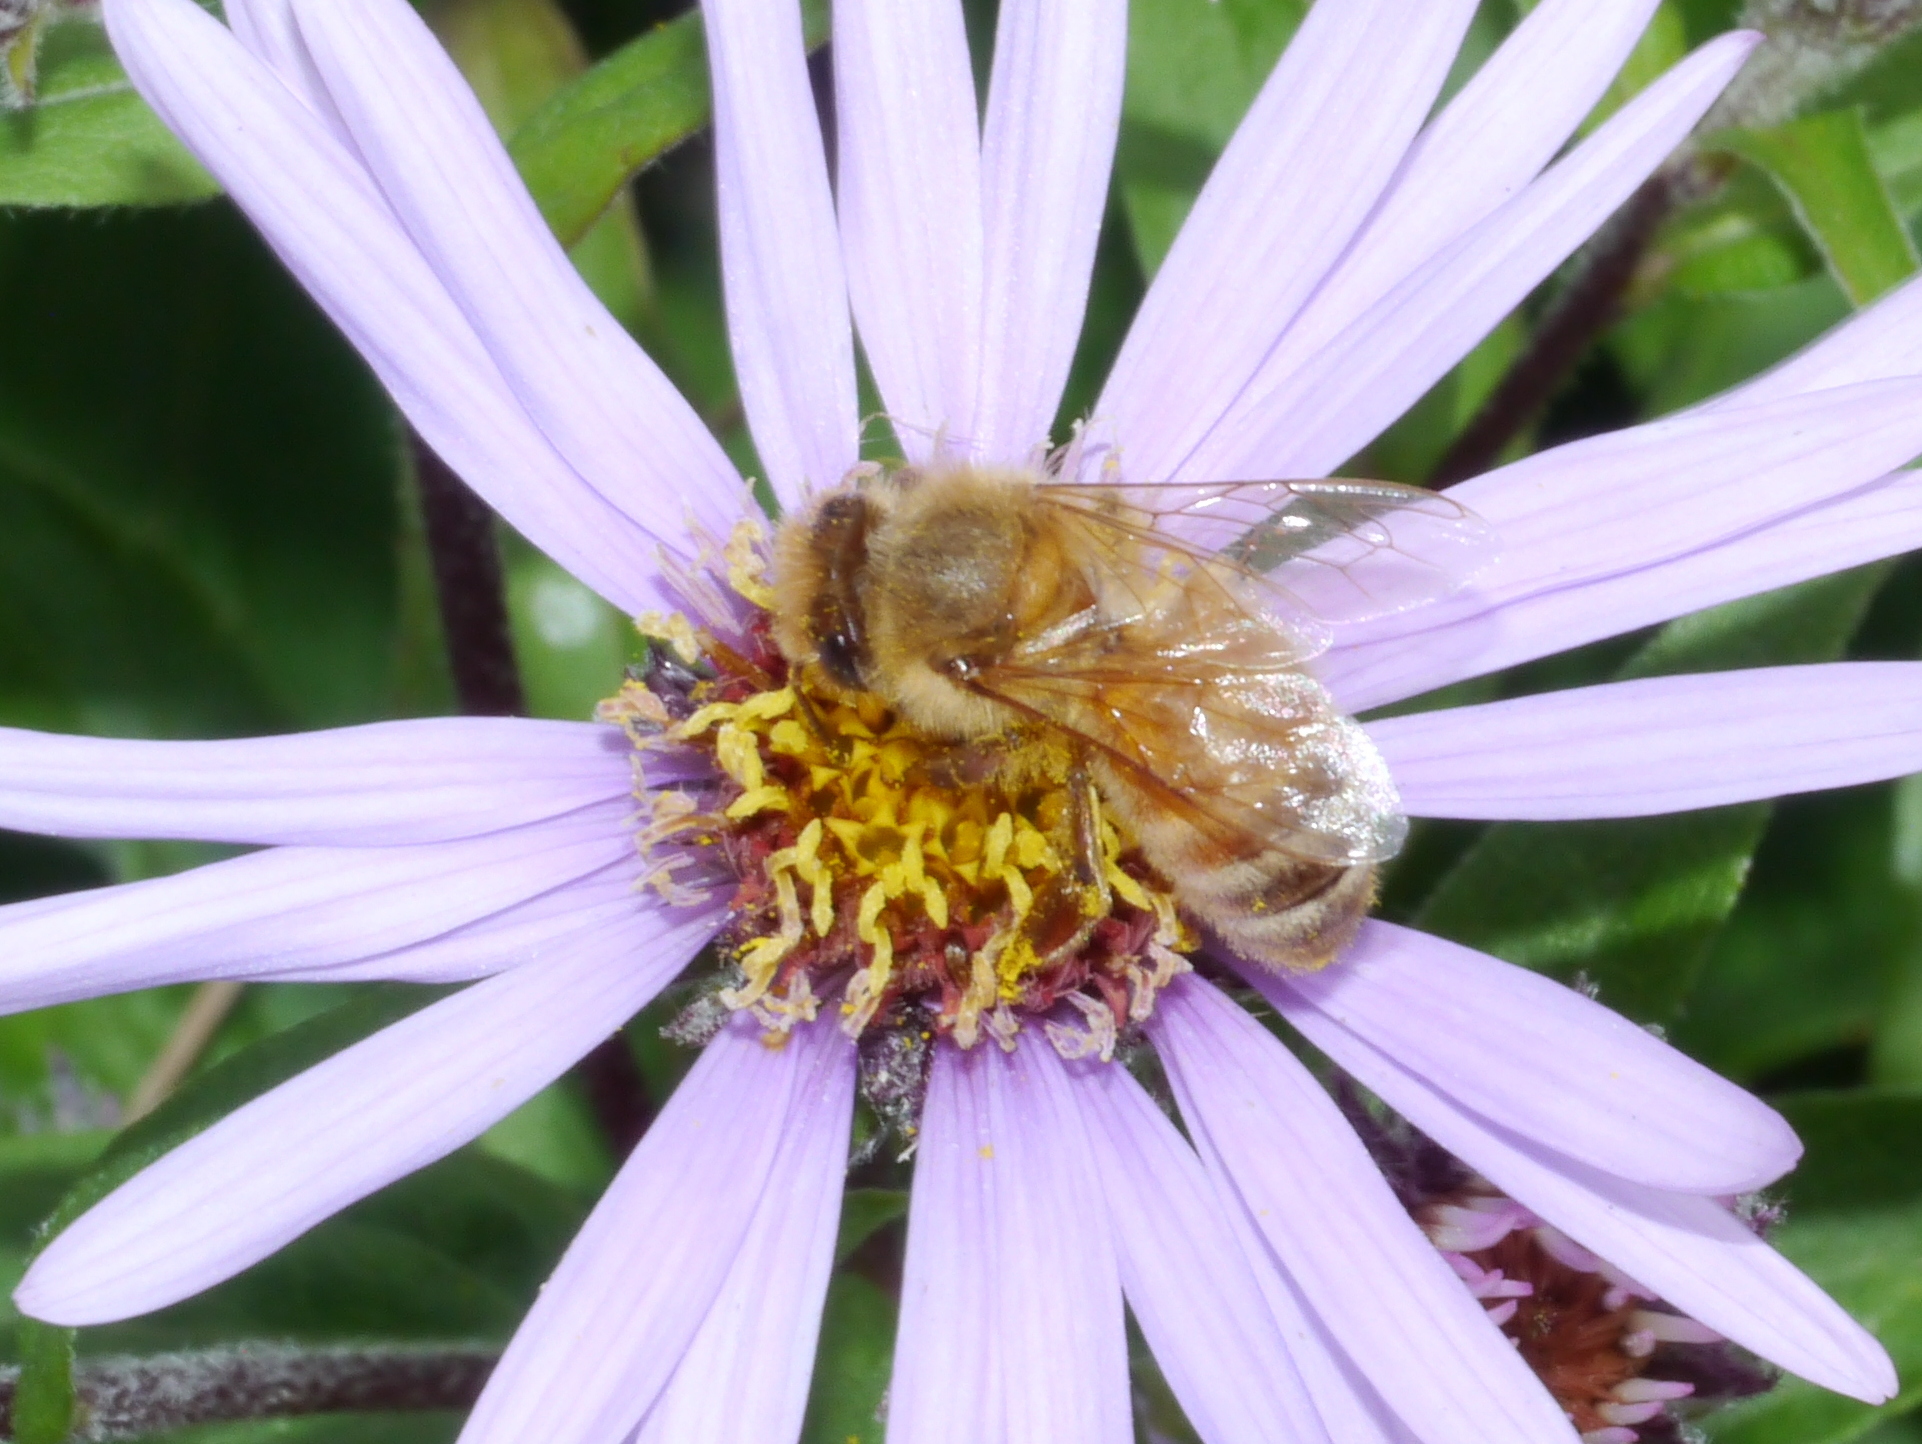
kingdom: Animalia
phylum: Arthropoda
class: Insecta
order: Hymenoptera
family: Apidae
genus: Apis
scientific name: Apis mellifera
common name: Honey bee
